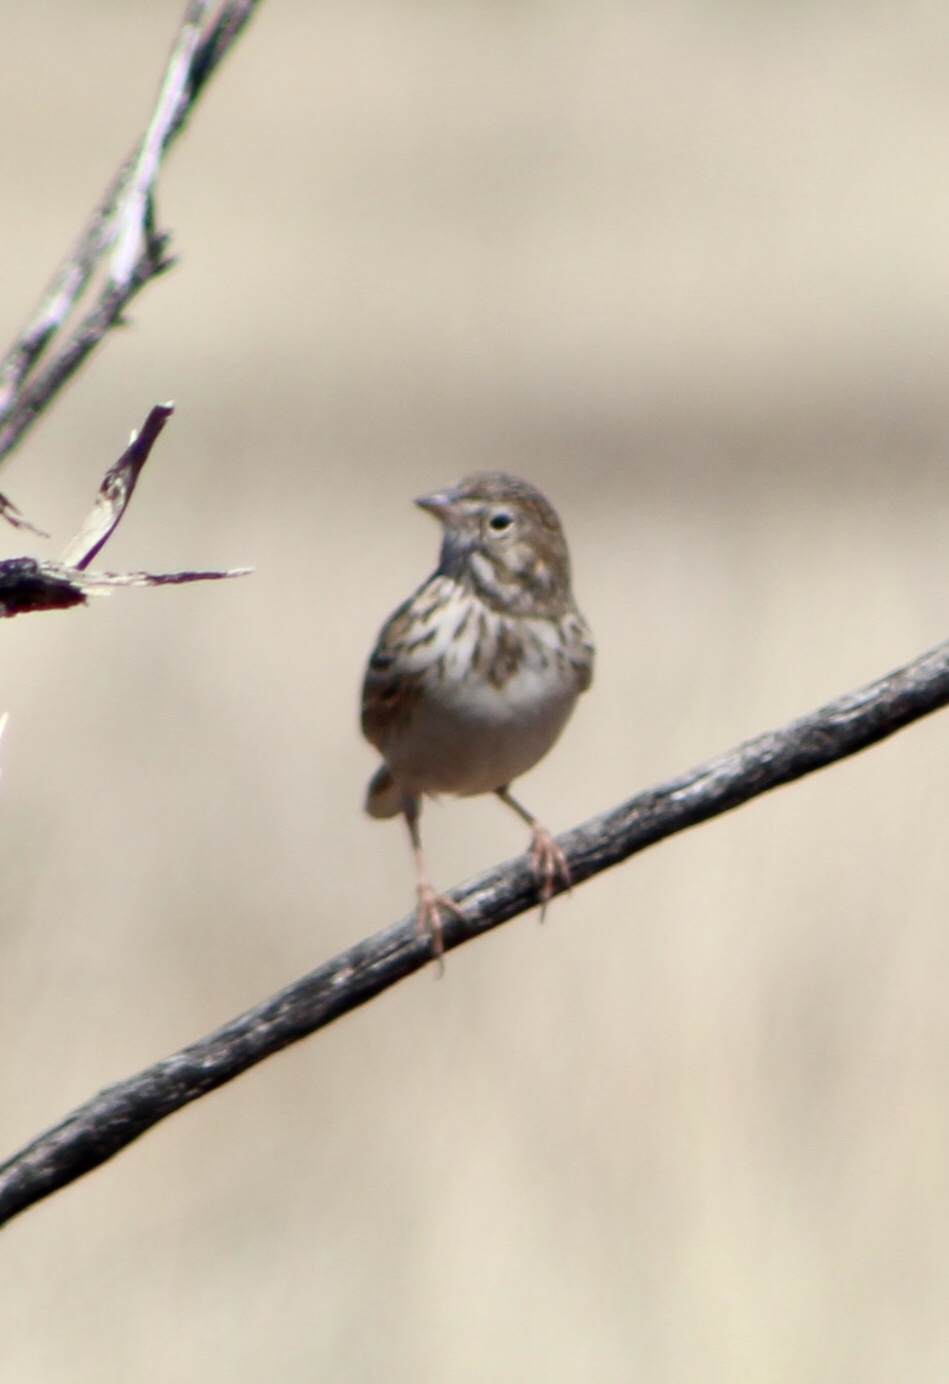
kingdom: Animalia
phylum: Chordata
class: Aves
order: Passeriformes
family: Passerellidae
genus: Pooecetes
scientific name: Pooecetes gramineus
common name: Vesper sparrow
